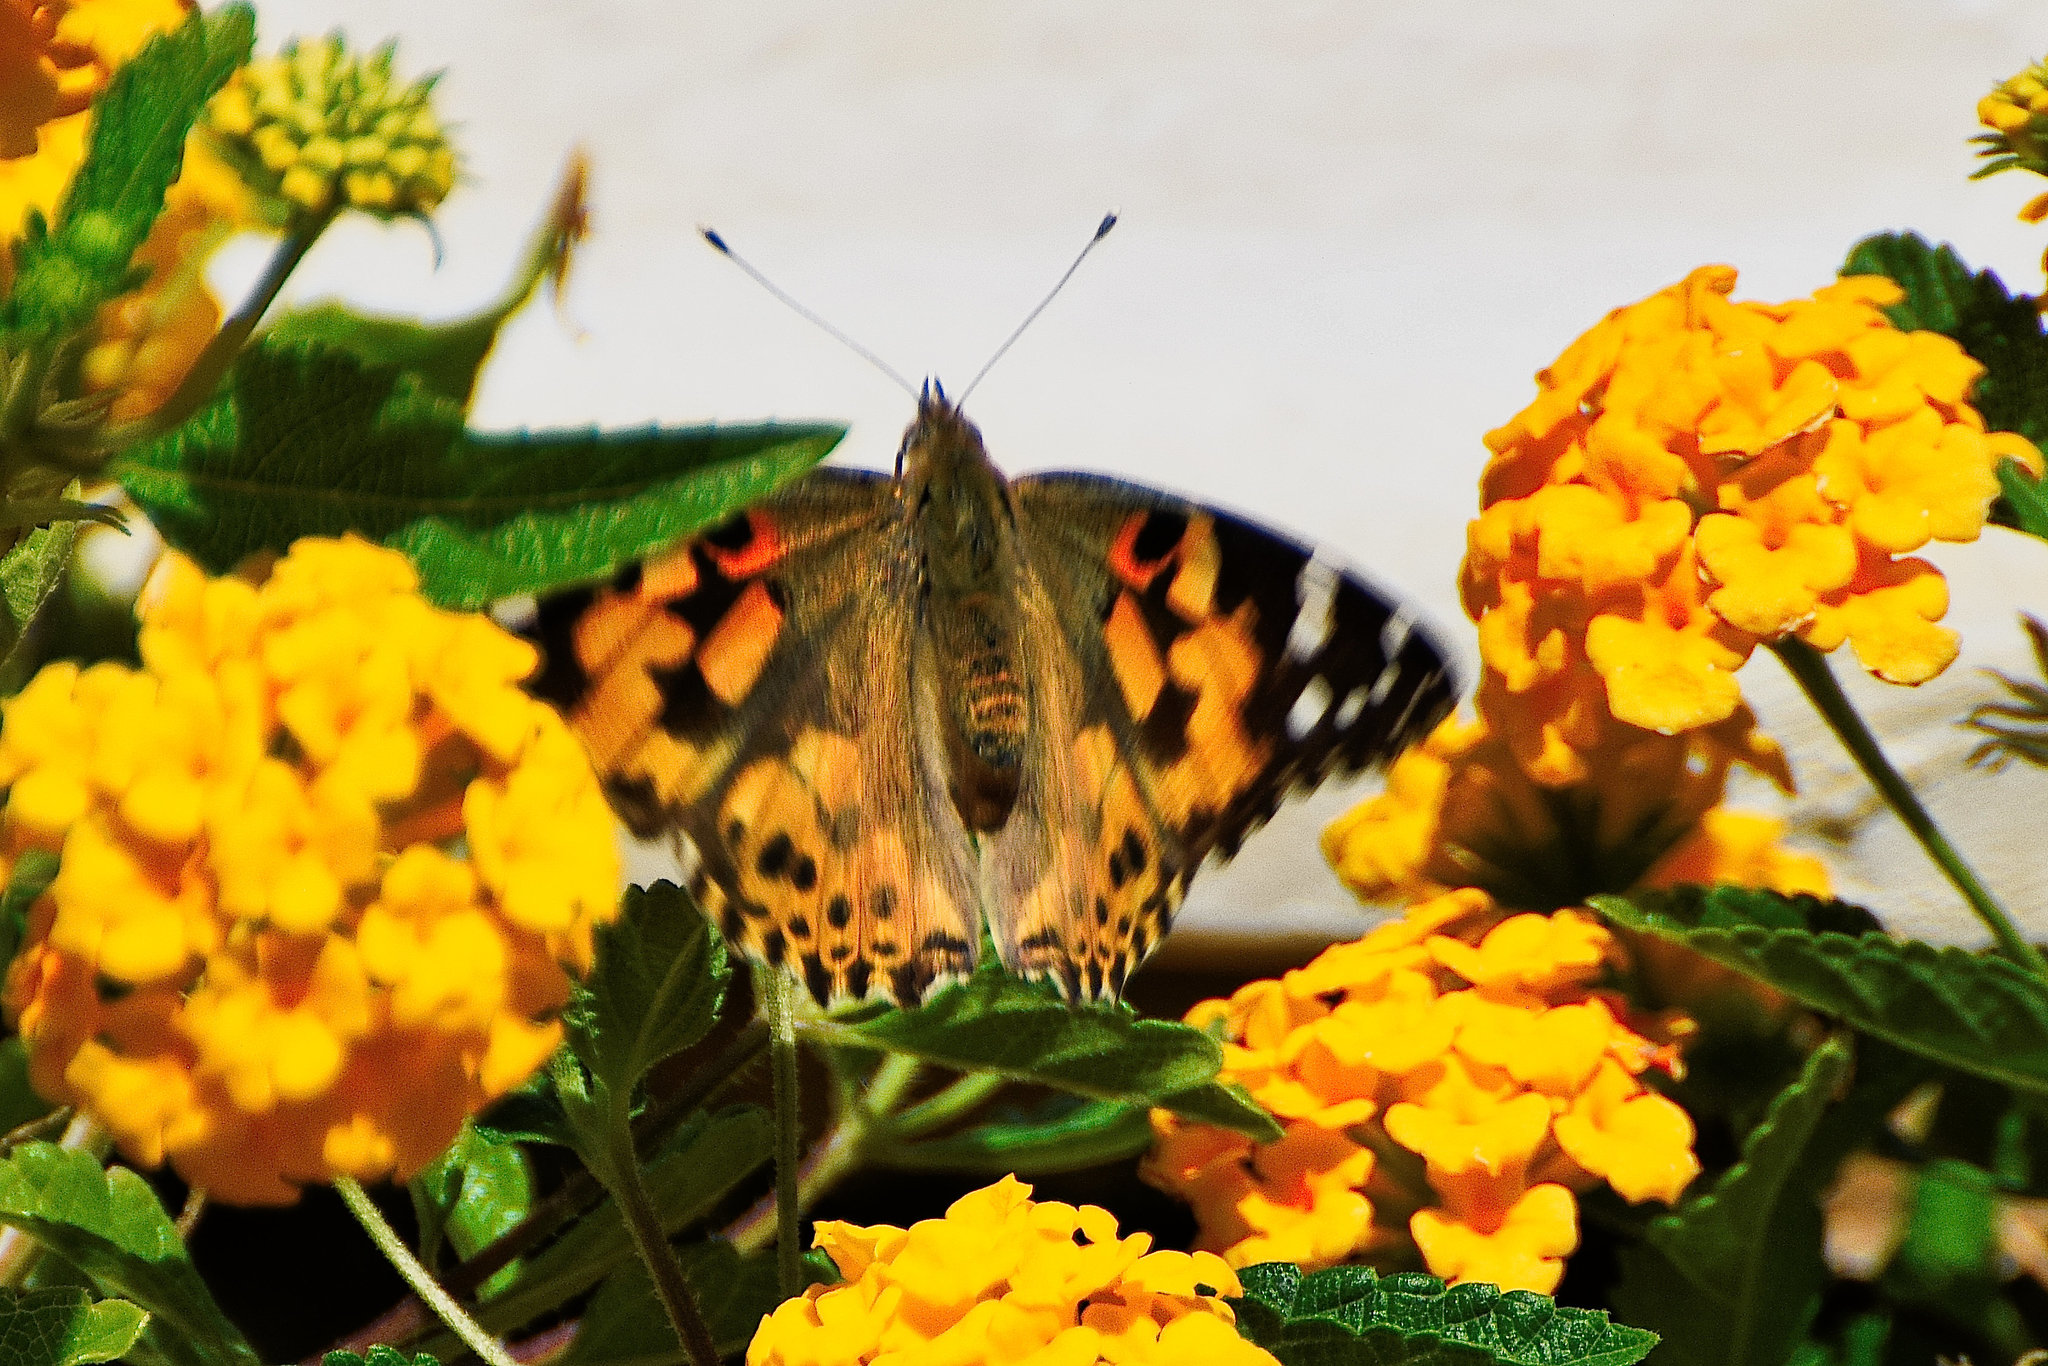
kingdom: Animalia
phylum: Arthropoda
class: Insecta
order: Lepidoptera
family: Nymphalidae
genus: Vanessa
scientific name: Vanessa cardui
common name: Painted lady
